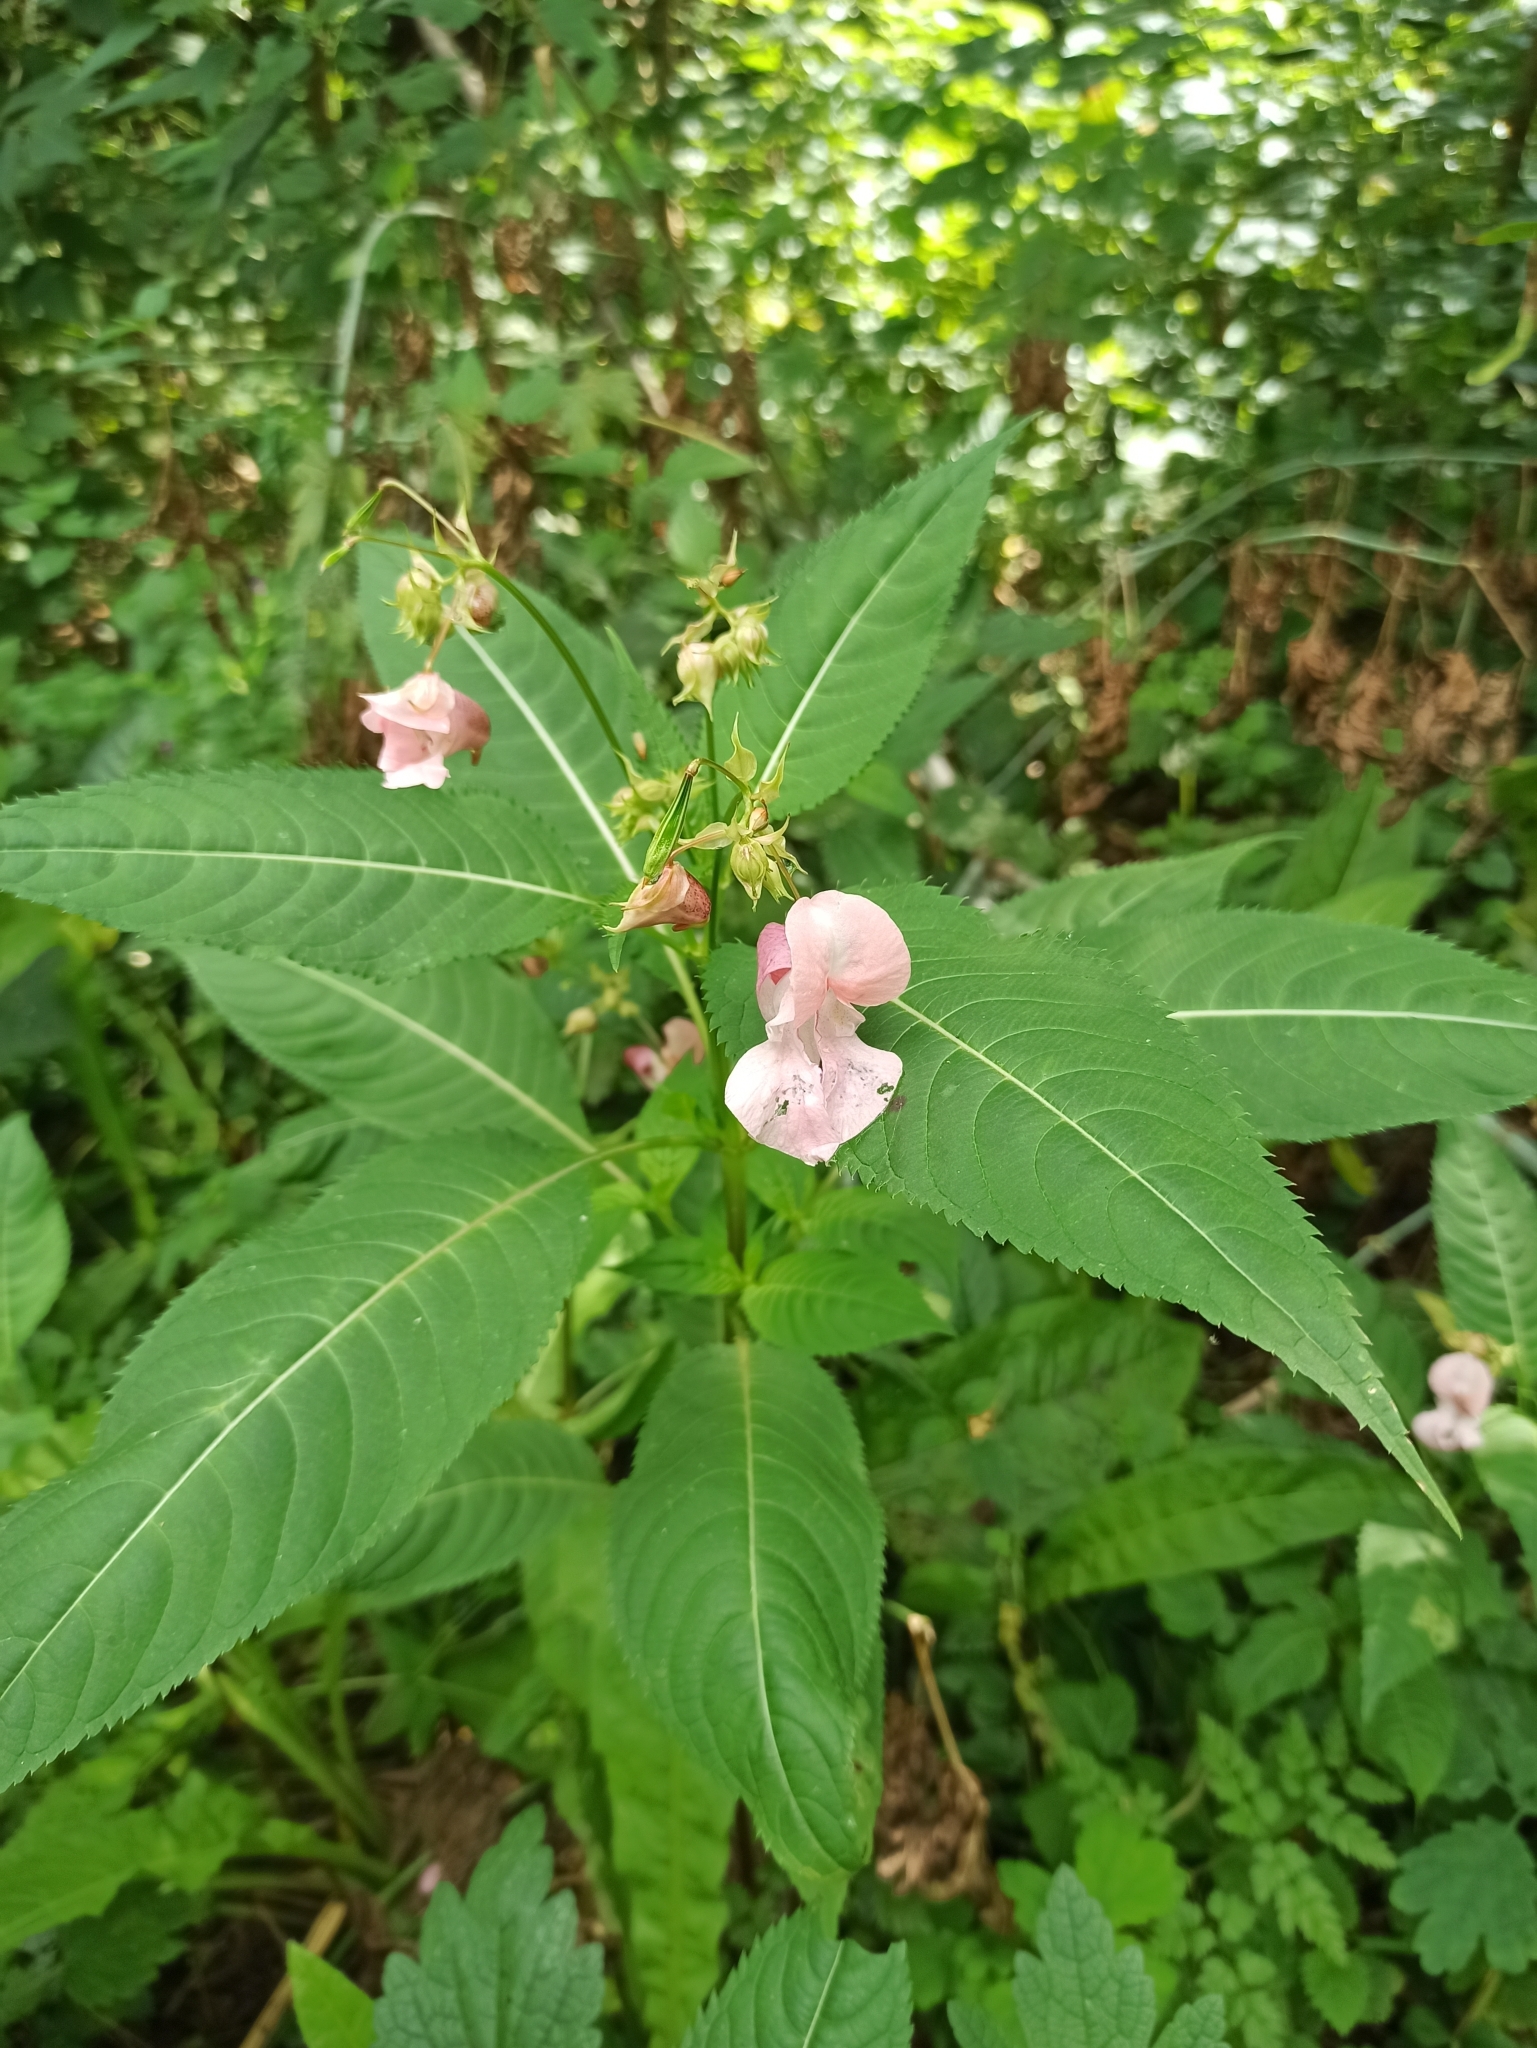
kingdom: Plantae
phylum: Tracheophyta
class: Magnoliopsida
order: Ericales
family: Balsaminaceae
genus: Impatiens
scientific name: Impatiens glandulifera
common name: Himalayan balsam
